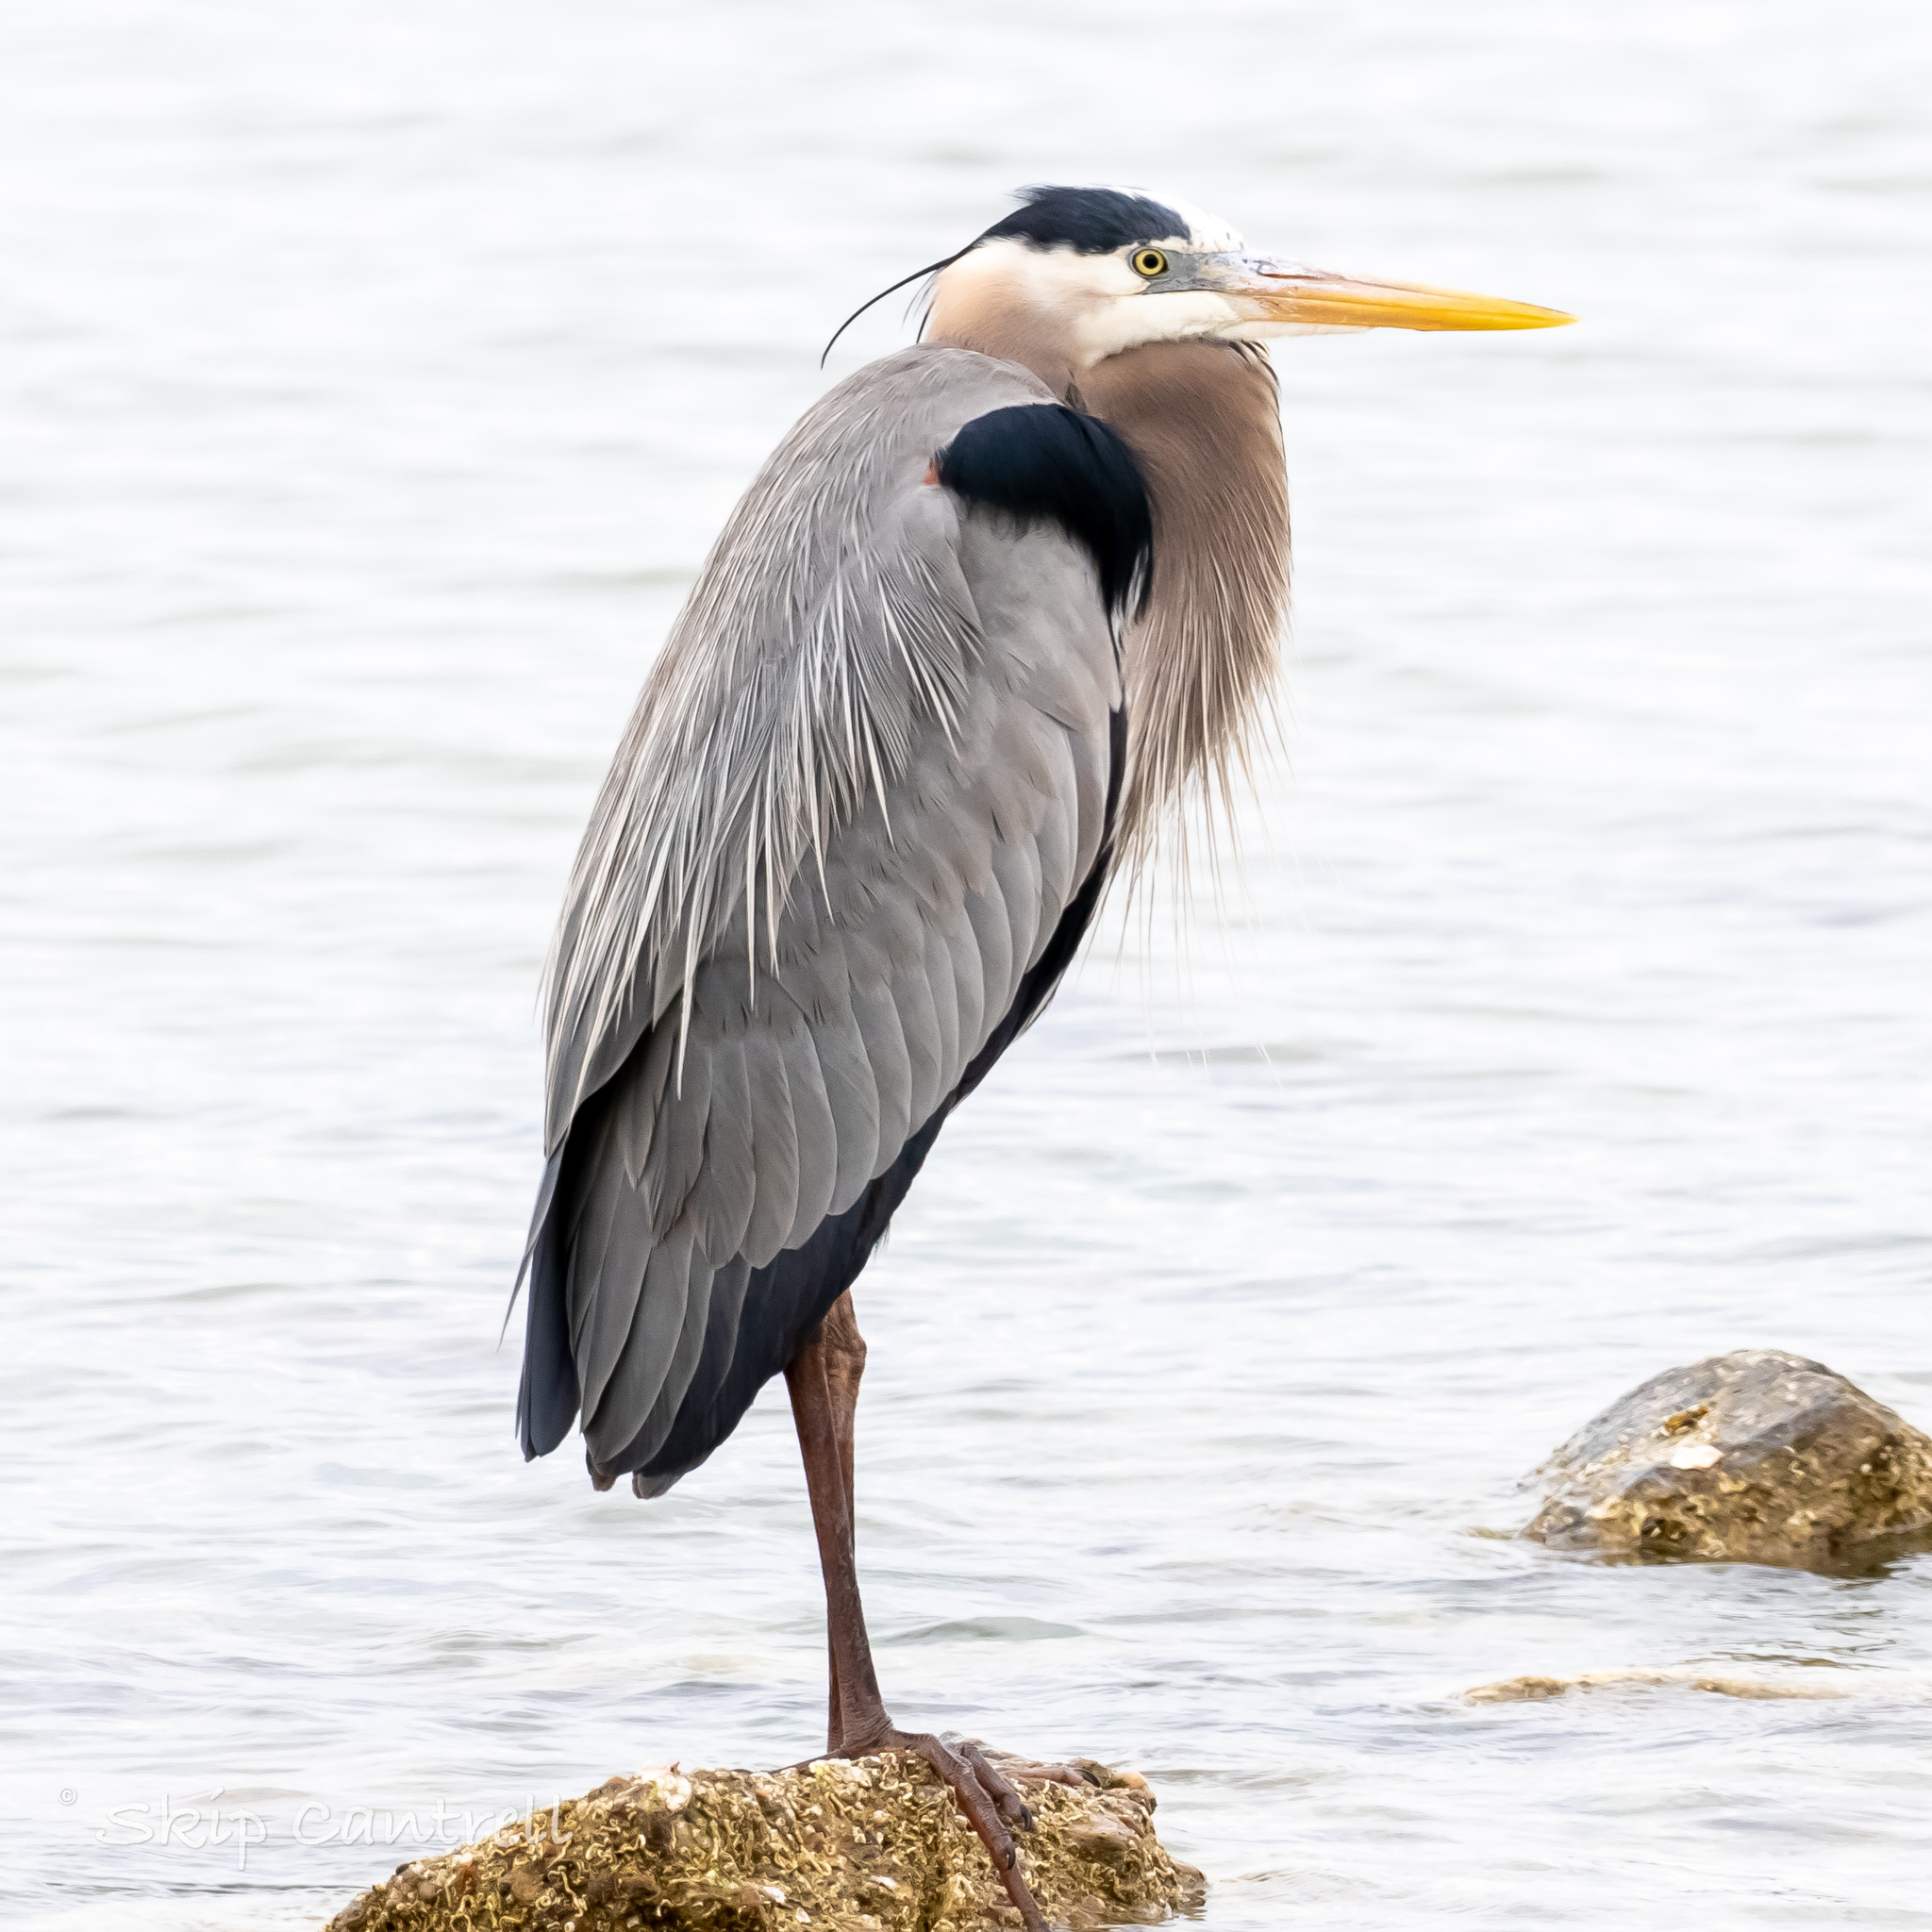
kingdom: Animalia
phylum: Chordata
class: Aves
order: Pelecaniformes
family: Ardeidae
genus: Ardea
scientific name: Ardea herodias
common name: Great blue heron
